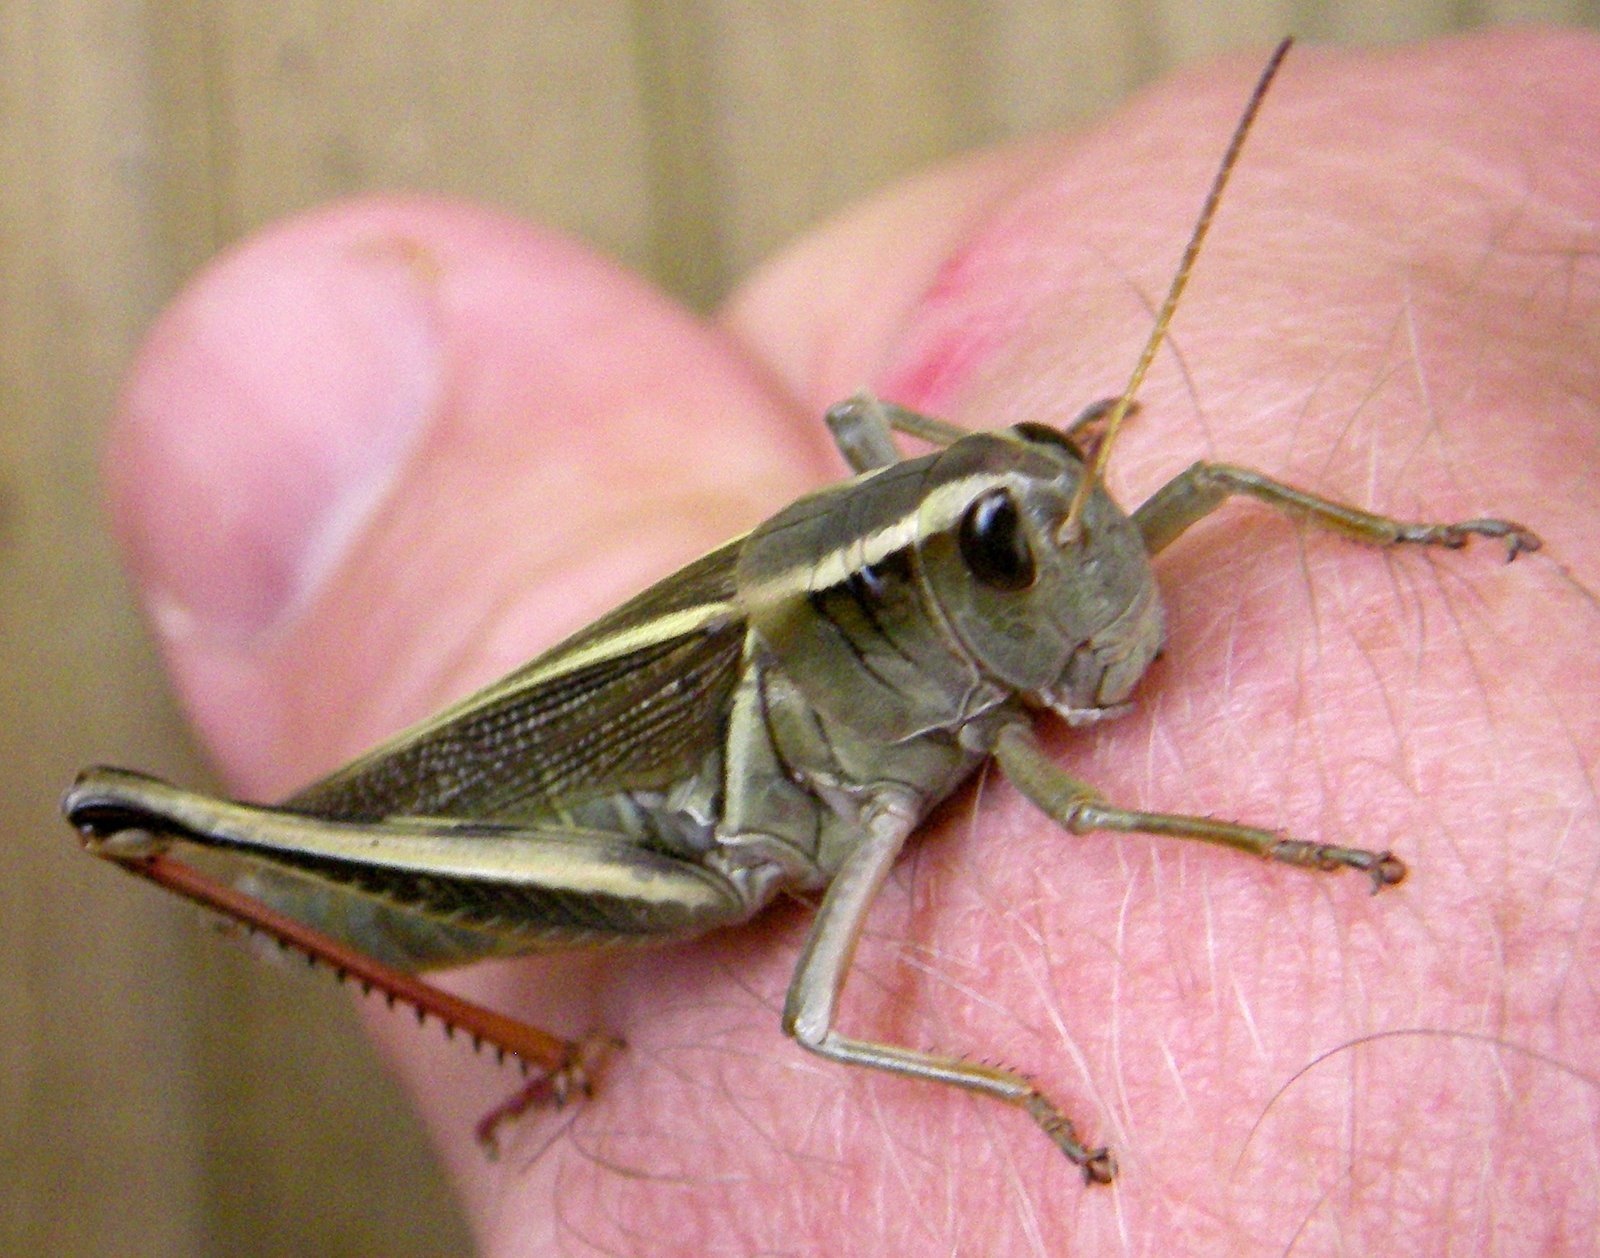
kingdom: Animalia
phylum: Arthropoda
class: Insecta
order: Orthoptera
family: Acrididae
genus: Melanoplus
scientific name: Melanoplus bivittatus
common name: Two-striped grasshopper
